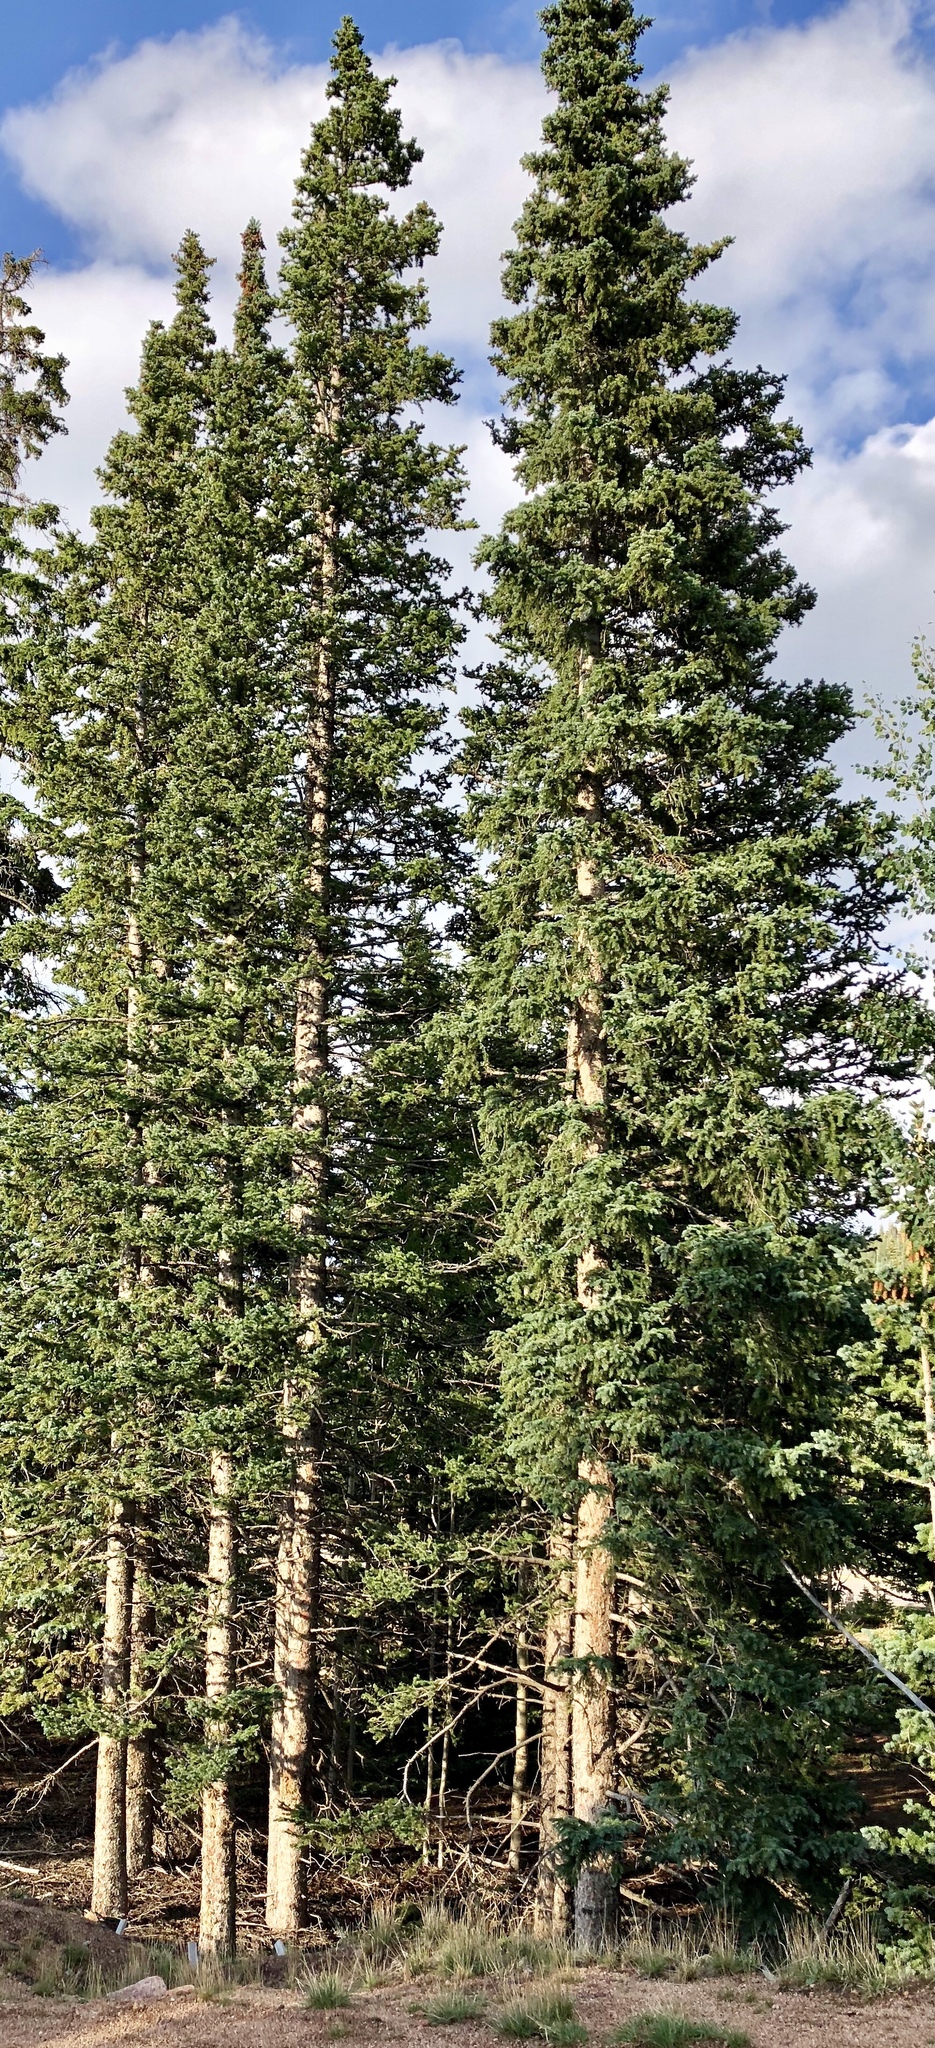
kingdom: Plantae
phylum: Tracheophyta
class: Pinopsida
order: Pinales
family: Pinaceae
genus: Picea
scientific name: Picea engelmannii
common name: Engelmann spruce
